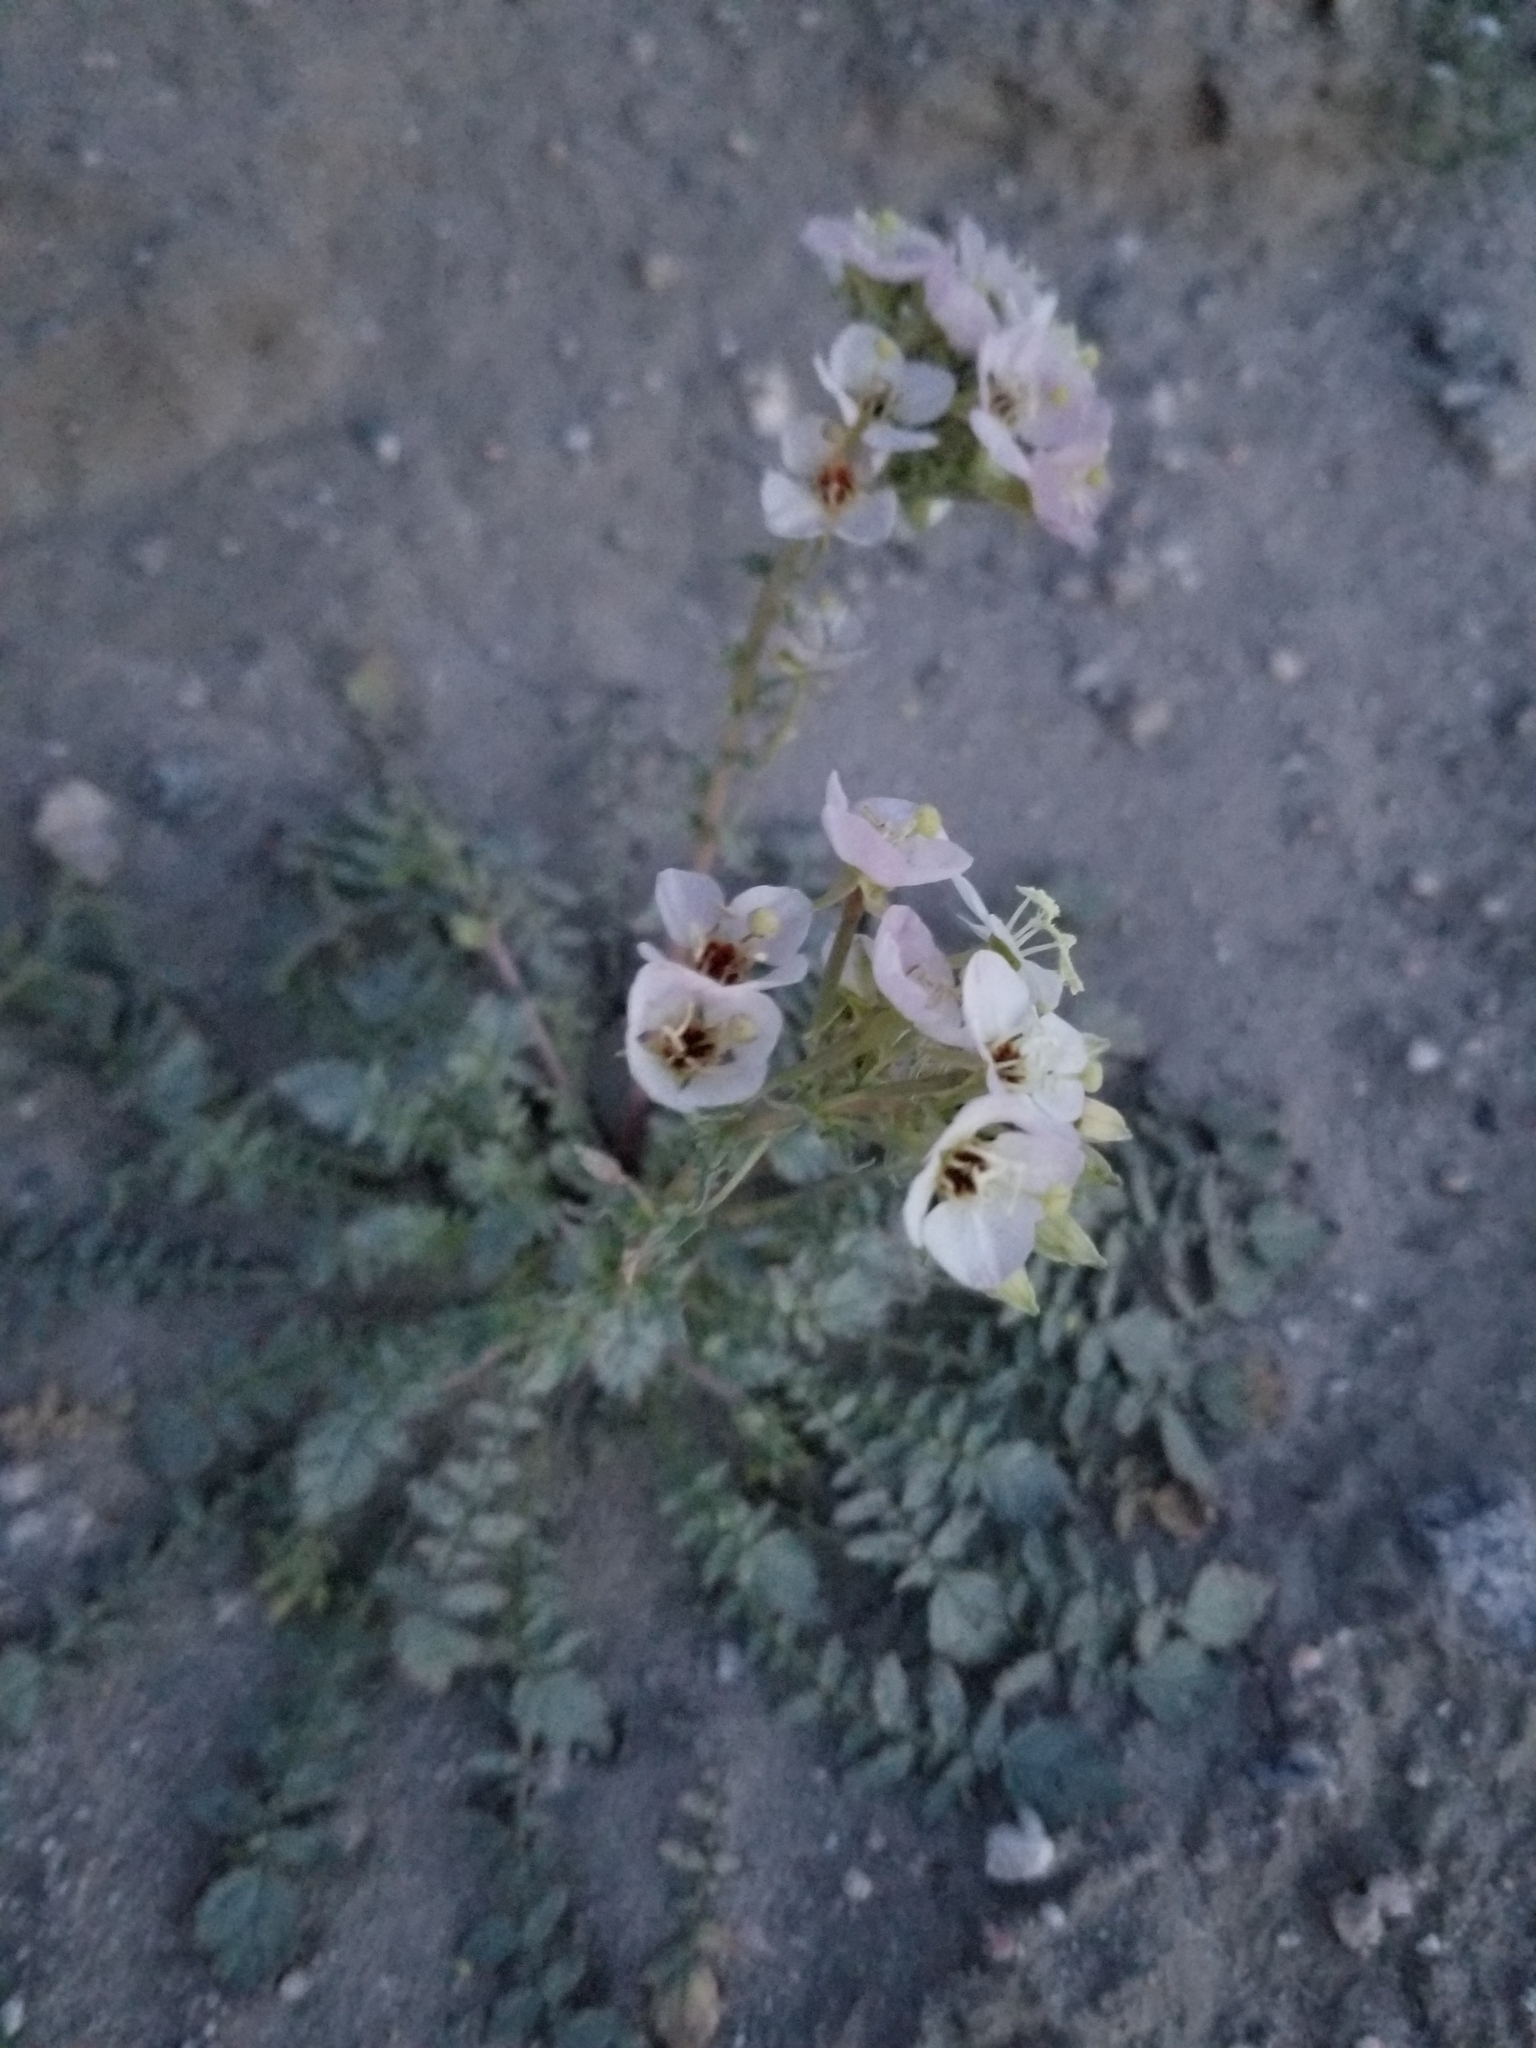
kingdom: Plantae
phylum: Tracheophyta
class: Magnoliopsida
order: Myrtales
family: Onagraceae
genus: Chylismia
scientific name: Chylismia claviformis
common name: Browneyes
